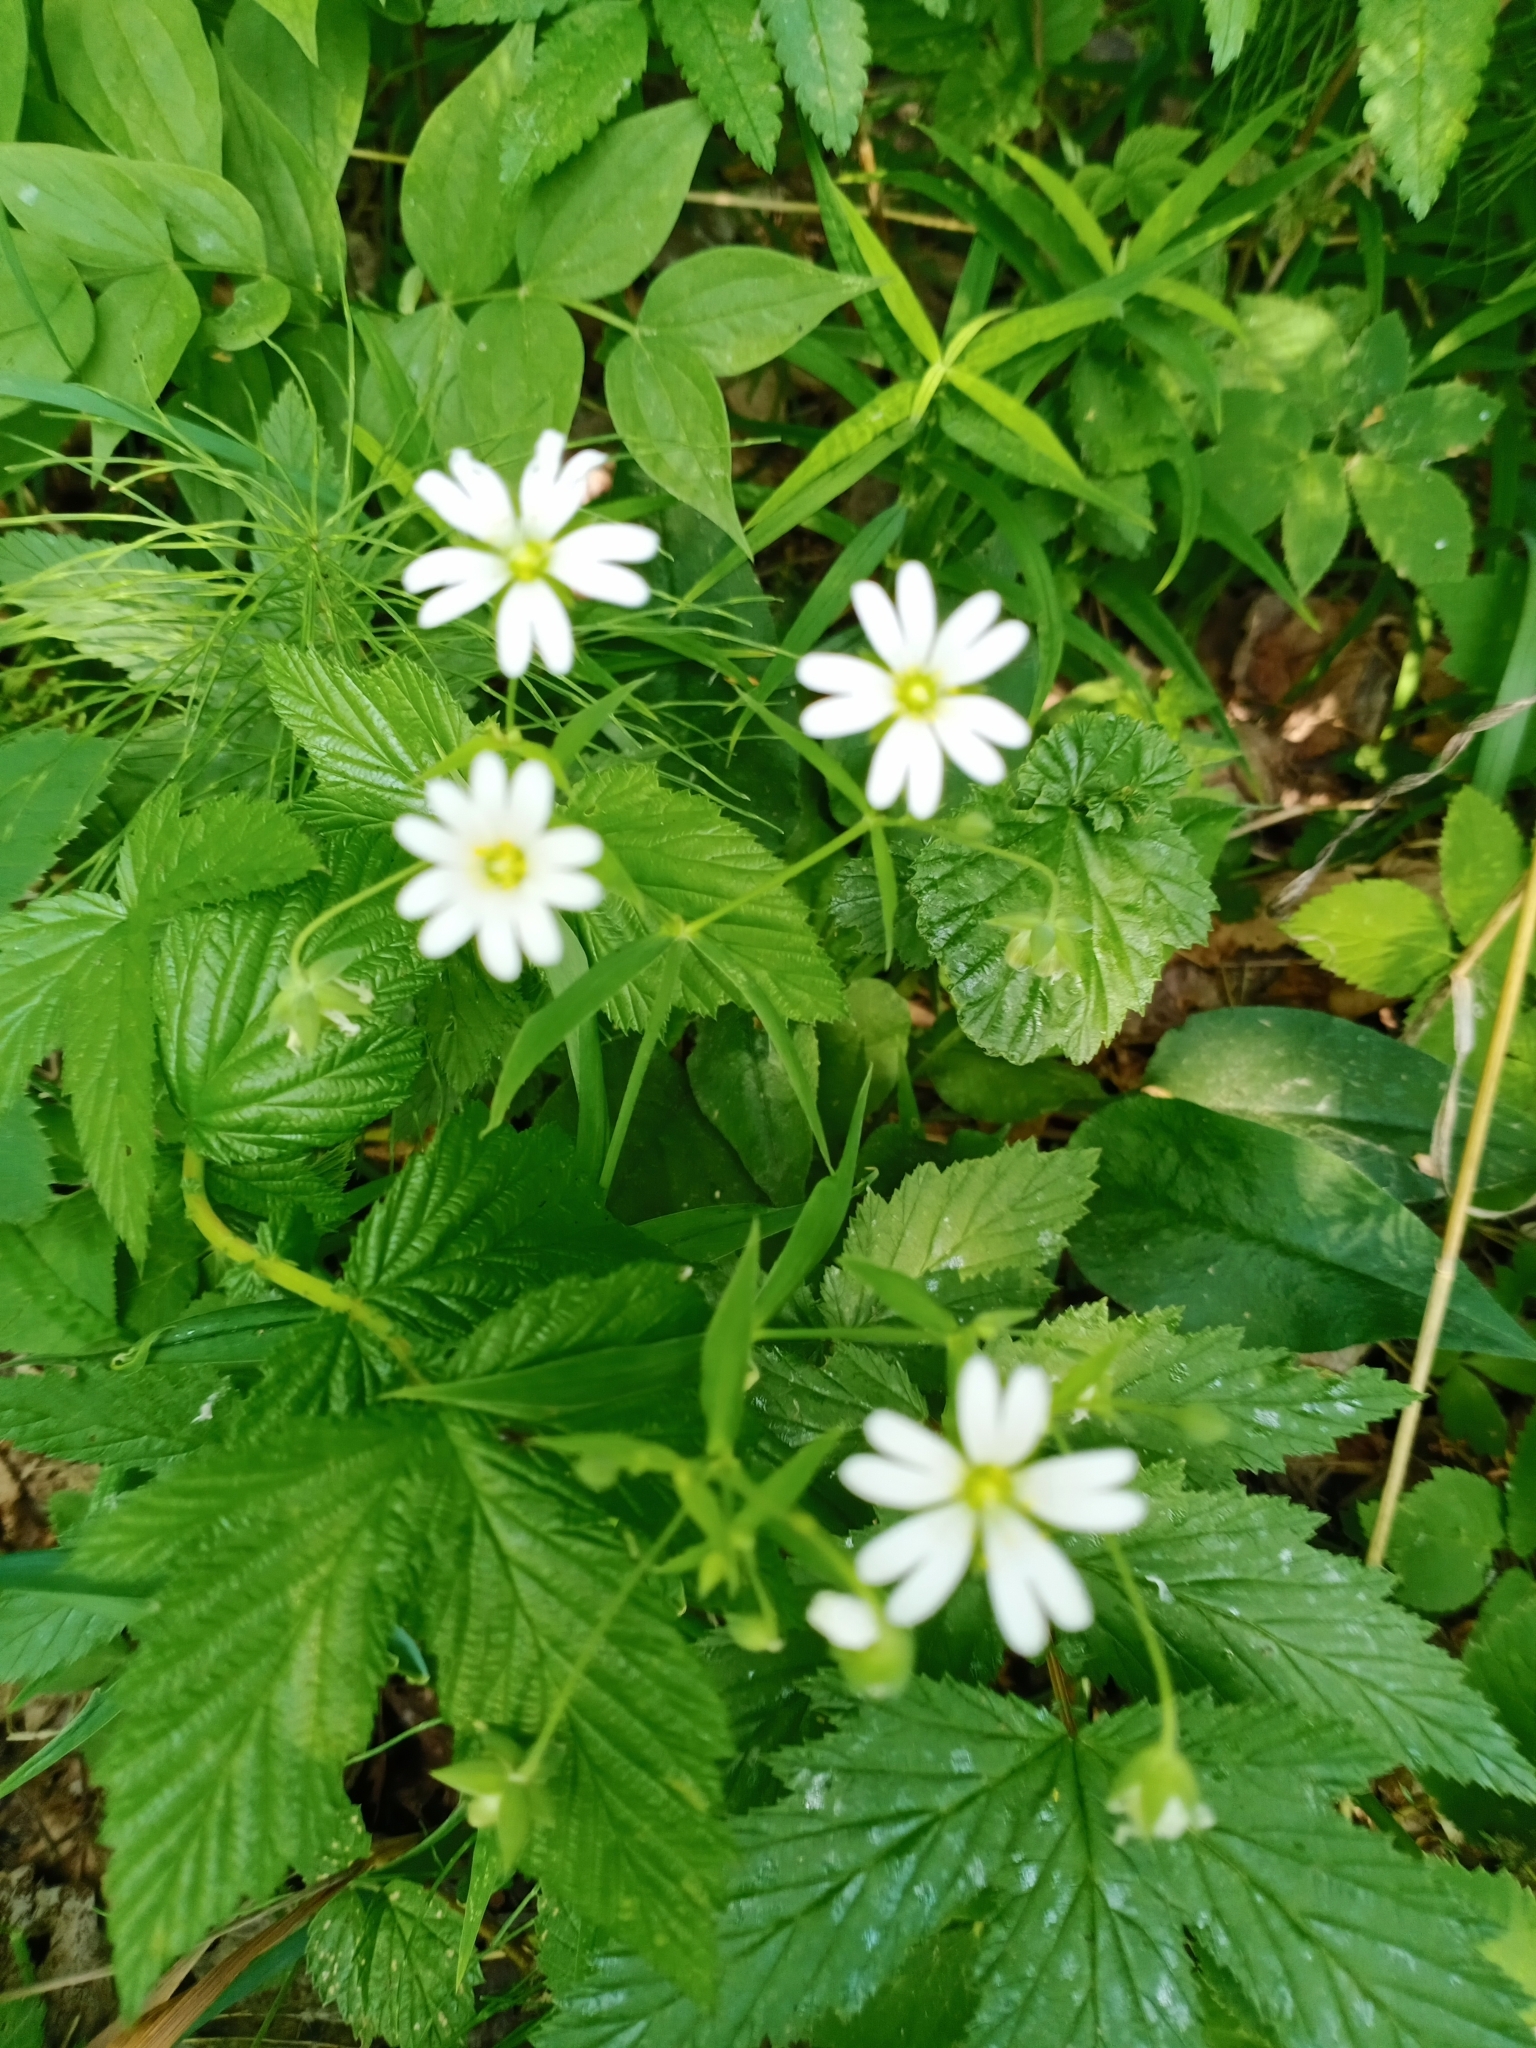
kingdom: Plantae
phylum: Tracheophyta
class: Magnoliopsida
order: Caryophyllales
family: Caryophyllaceae
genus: Rabelera
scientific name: Rabelera holostea
